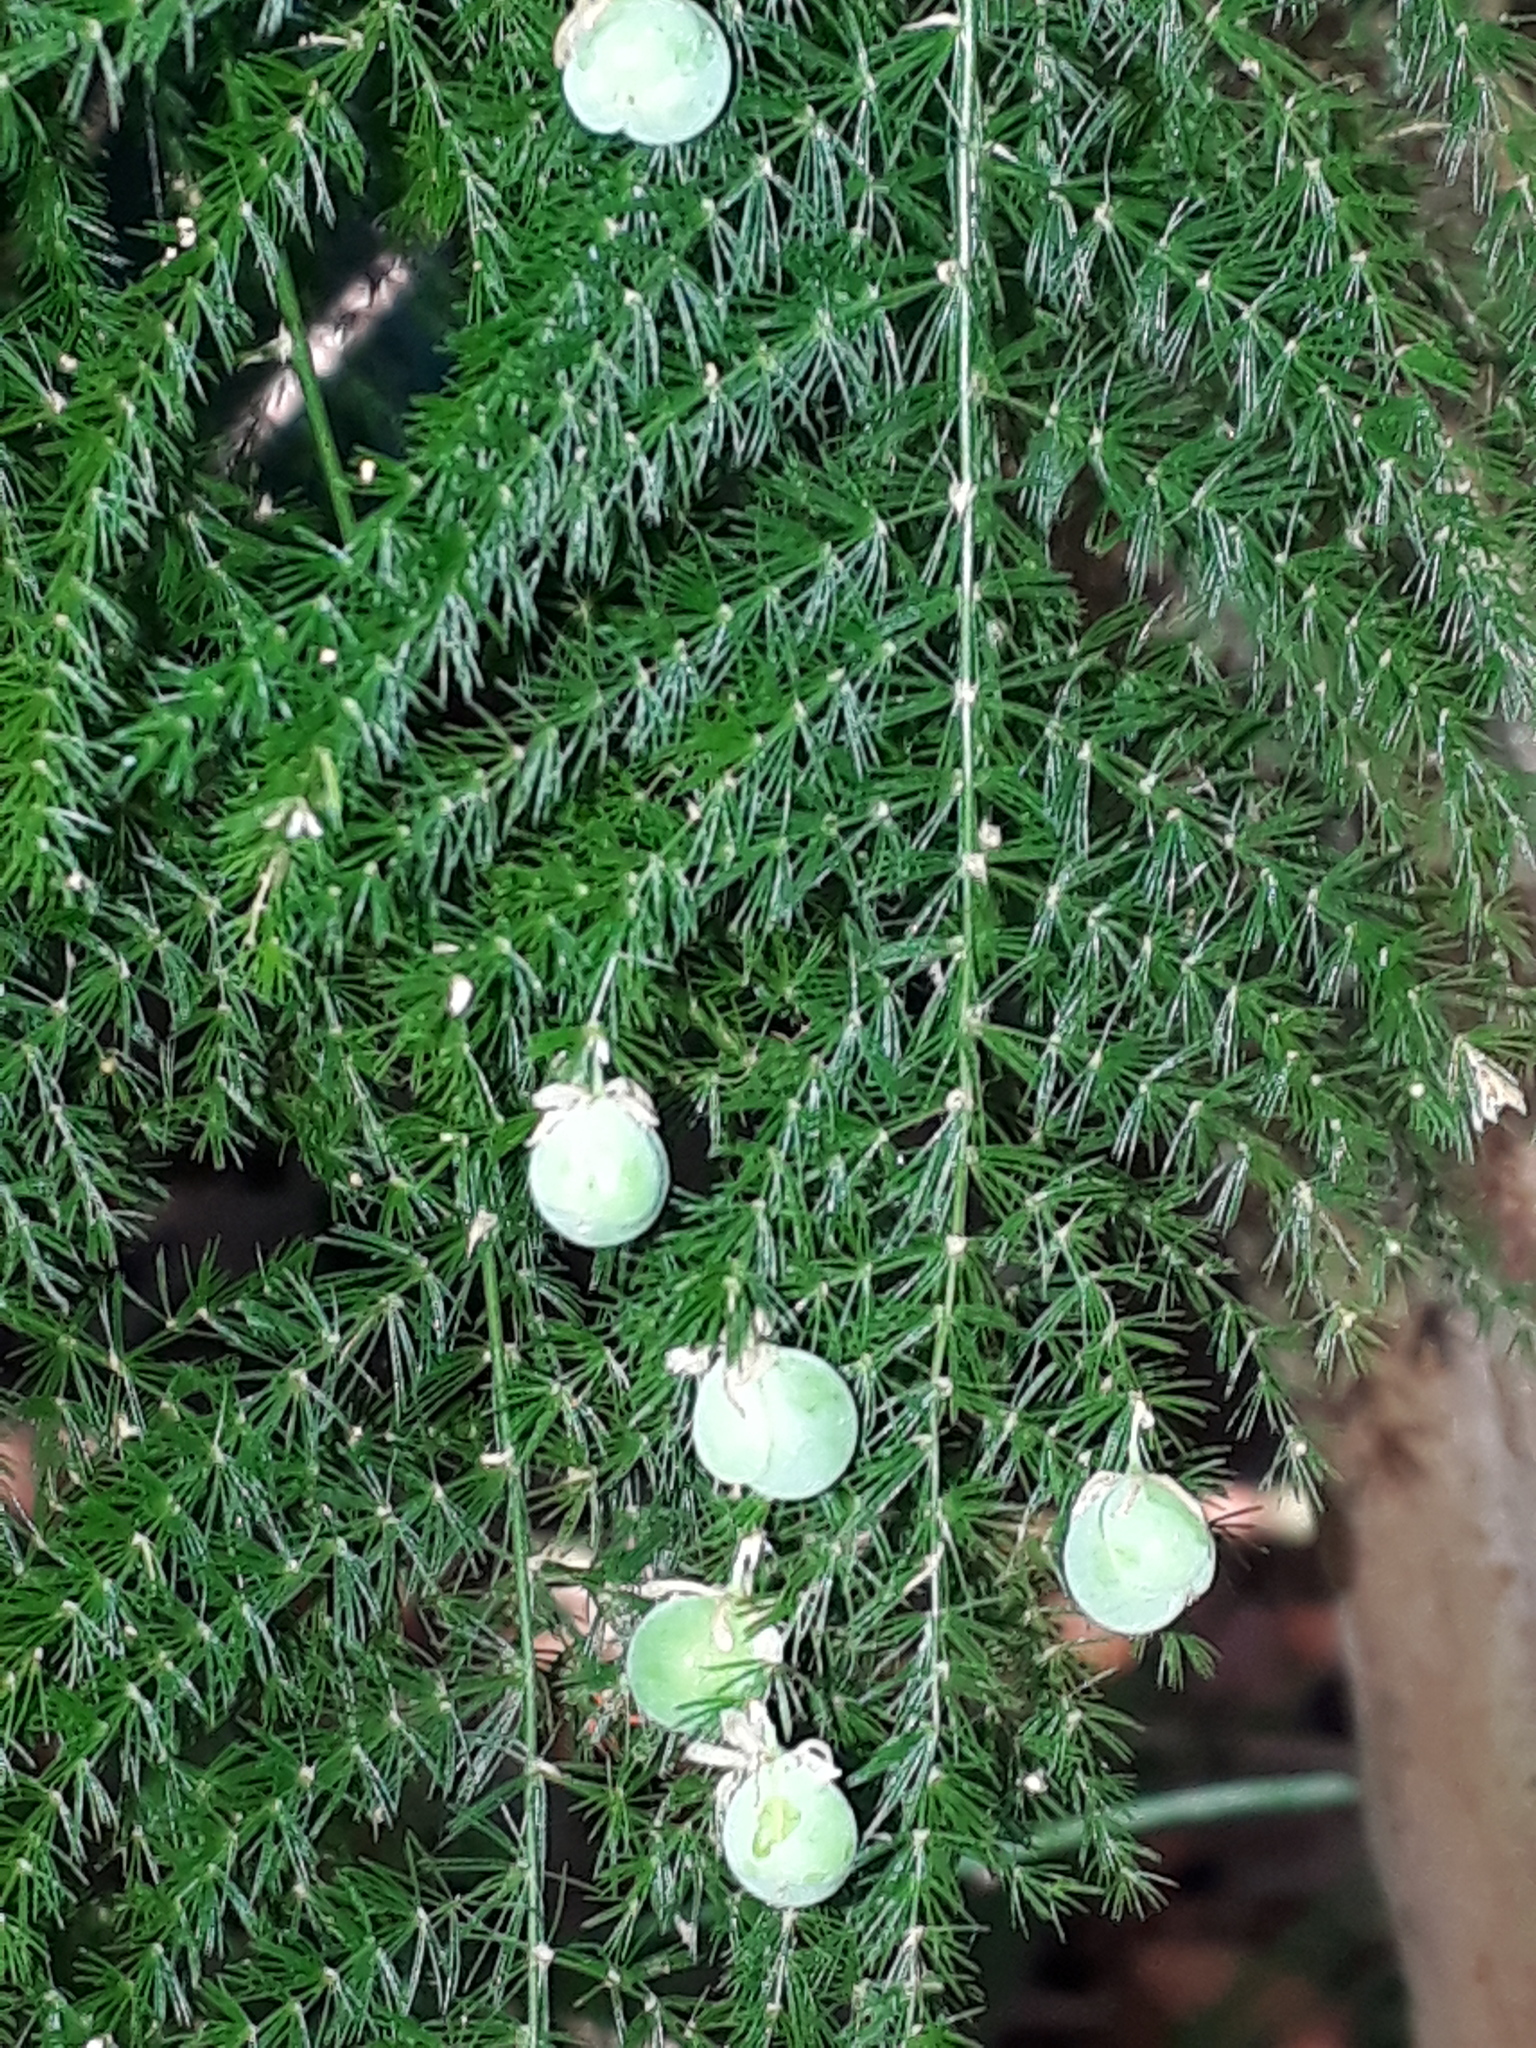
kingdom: Plantae
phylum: Tracheophyta
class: Liliopsida
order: Asparagales
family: Asparagaceae
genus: Asparagus
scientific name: Asparagus setaceus
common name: Common asparagus fern
